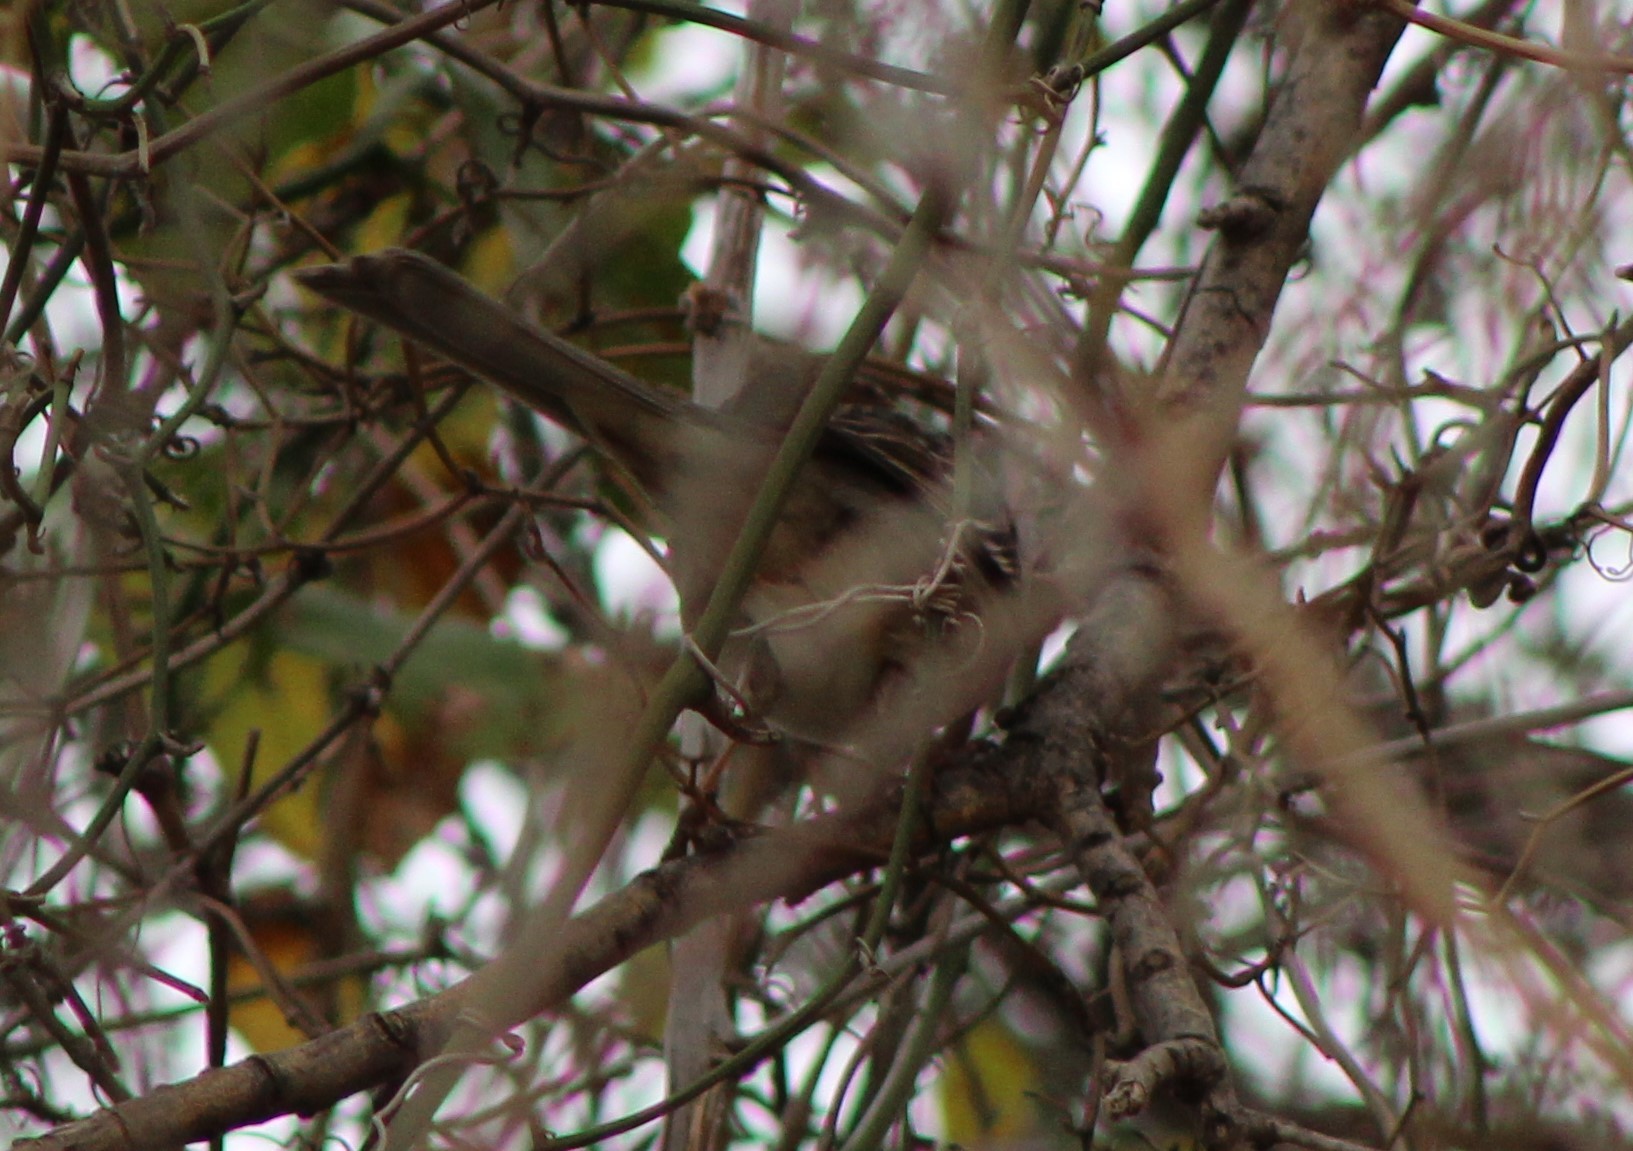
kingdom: Animalia
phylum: Chordata
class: Aves
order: Passeriformes
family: Passerellidae
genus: Zonotrichia
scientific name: Zonotrichia querula
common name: Harris's sparrow
